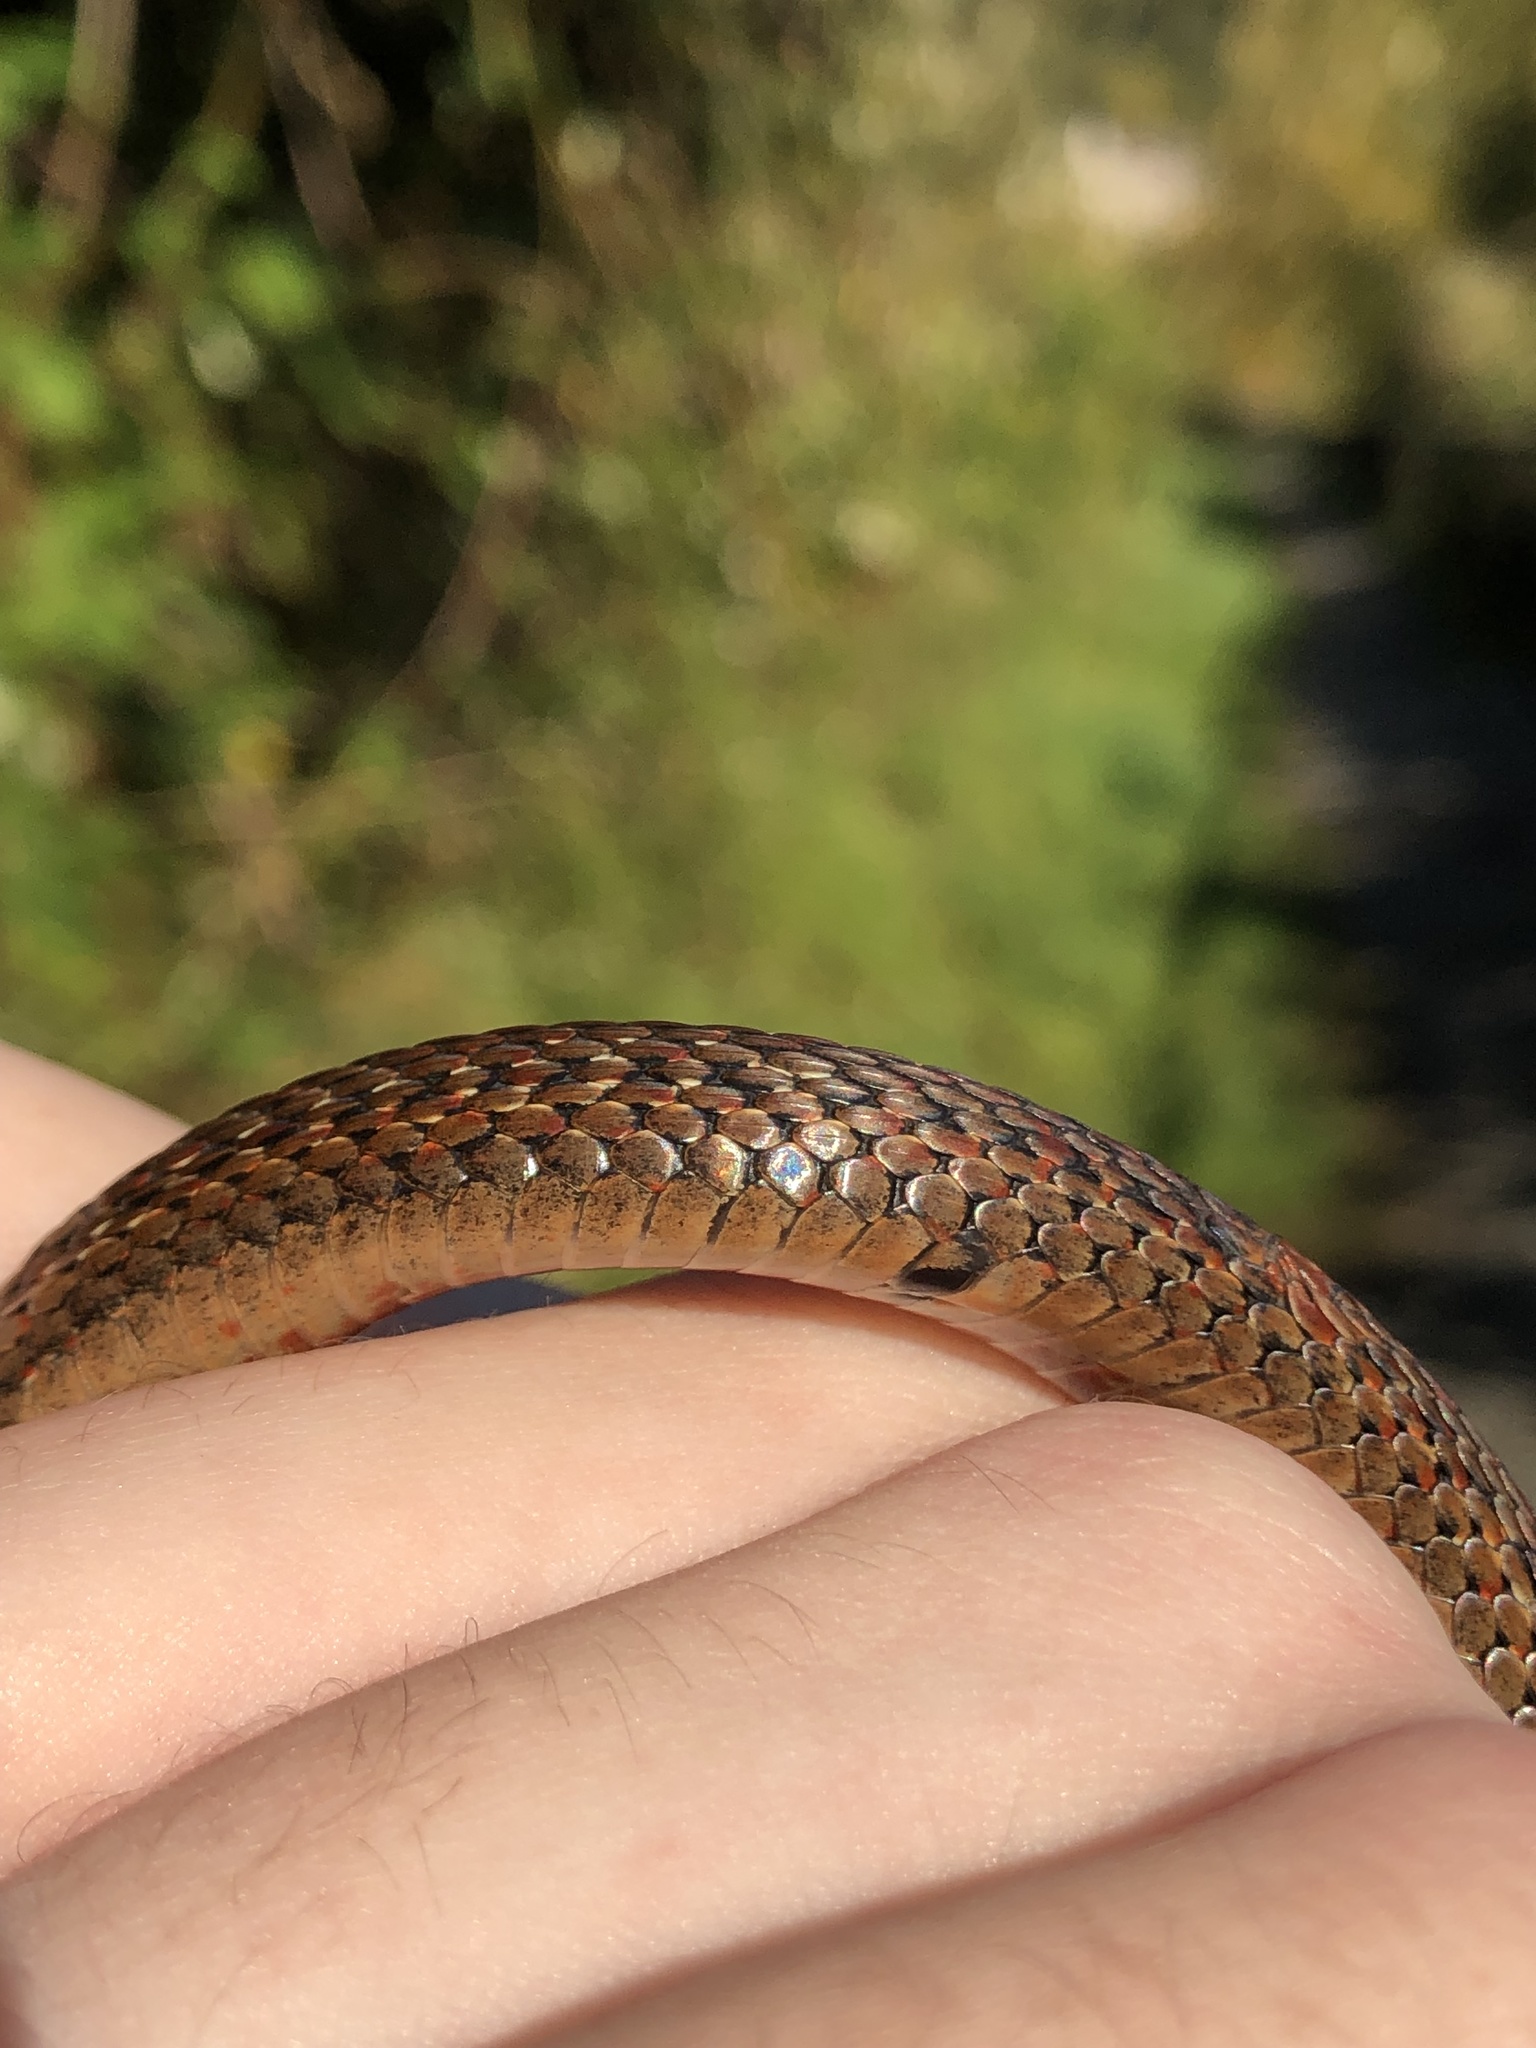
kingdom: Animalia
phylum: Chordata
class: Squamata
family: Colubridae
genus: Thamnophis
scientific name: Thamnophis ordinoides
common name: Northwestern garter snake
